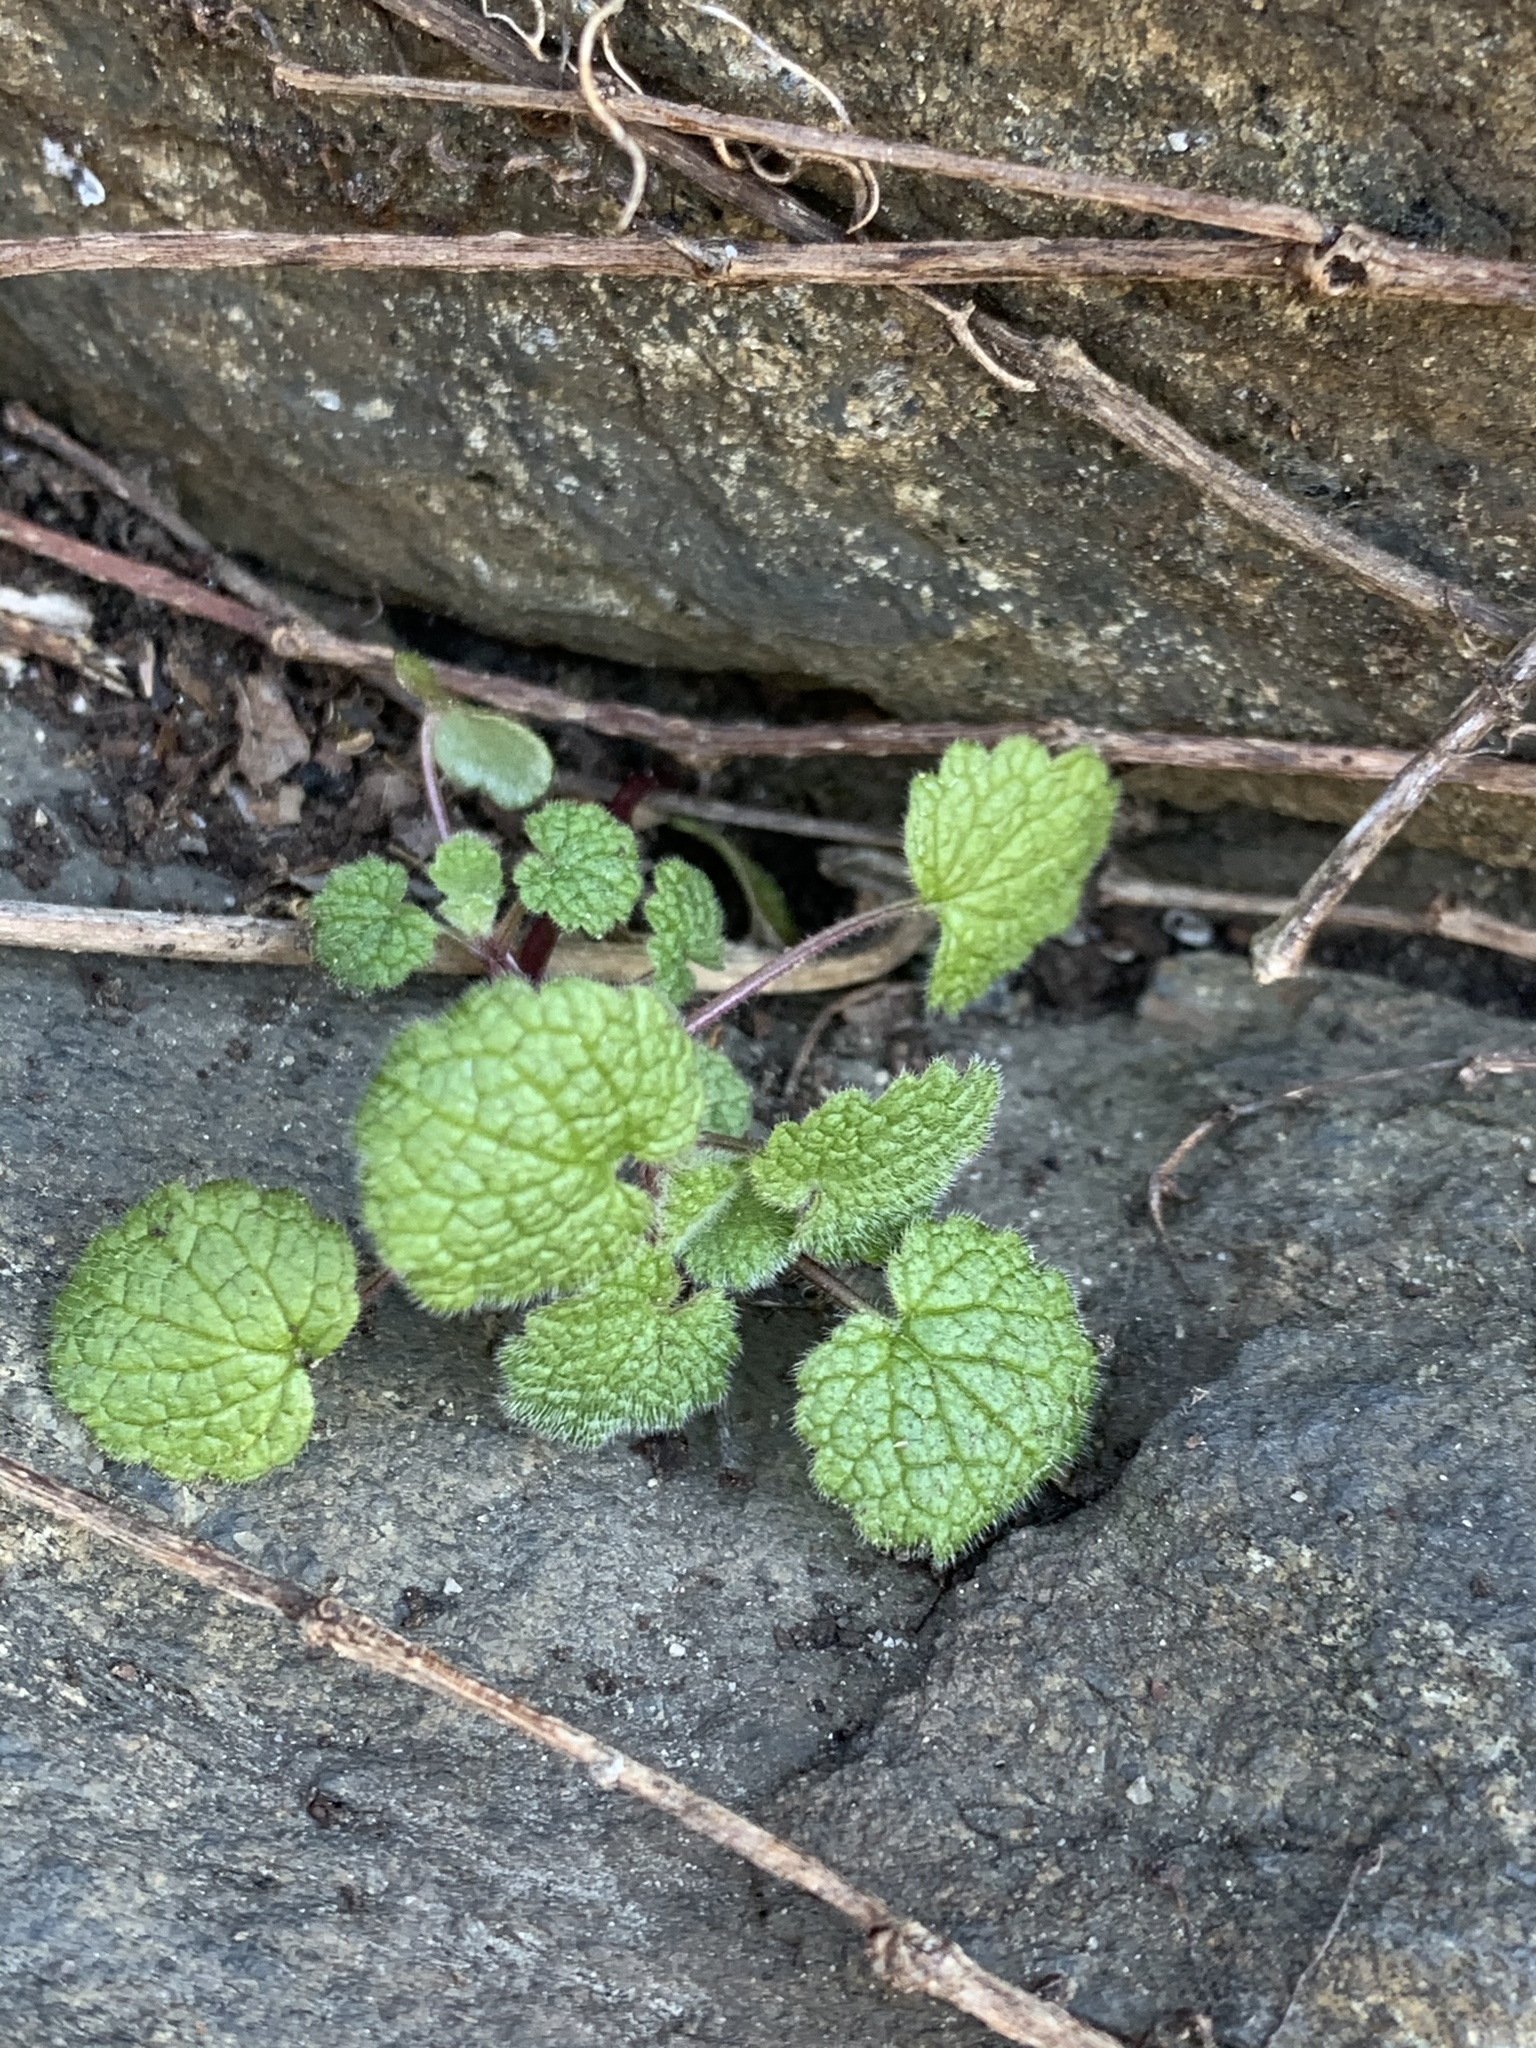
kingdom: Plantae
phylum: Tracheophyta
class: Magnoliopsida
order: Lamiales
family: Lamiaceae
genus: Lamium
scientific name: Lamium purpureum
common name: Red dead-nettle
